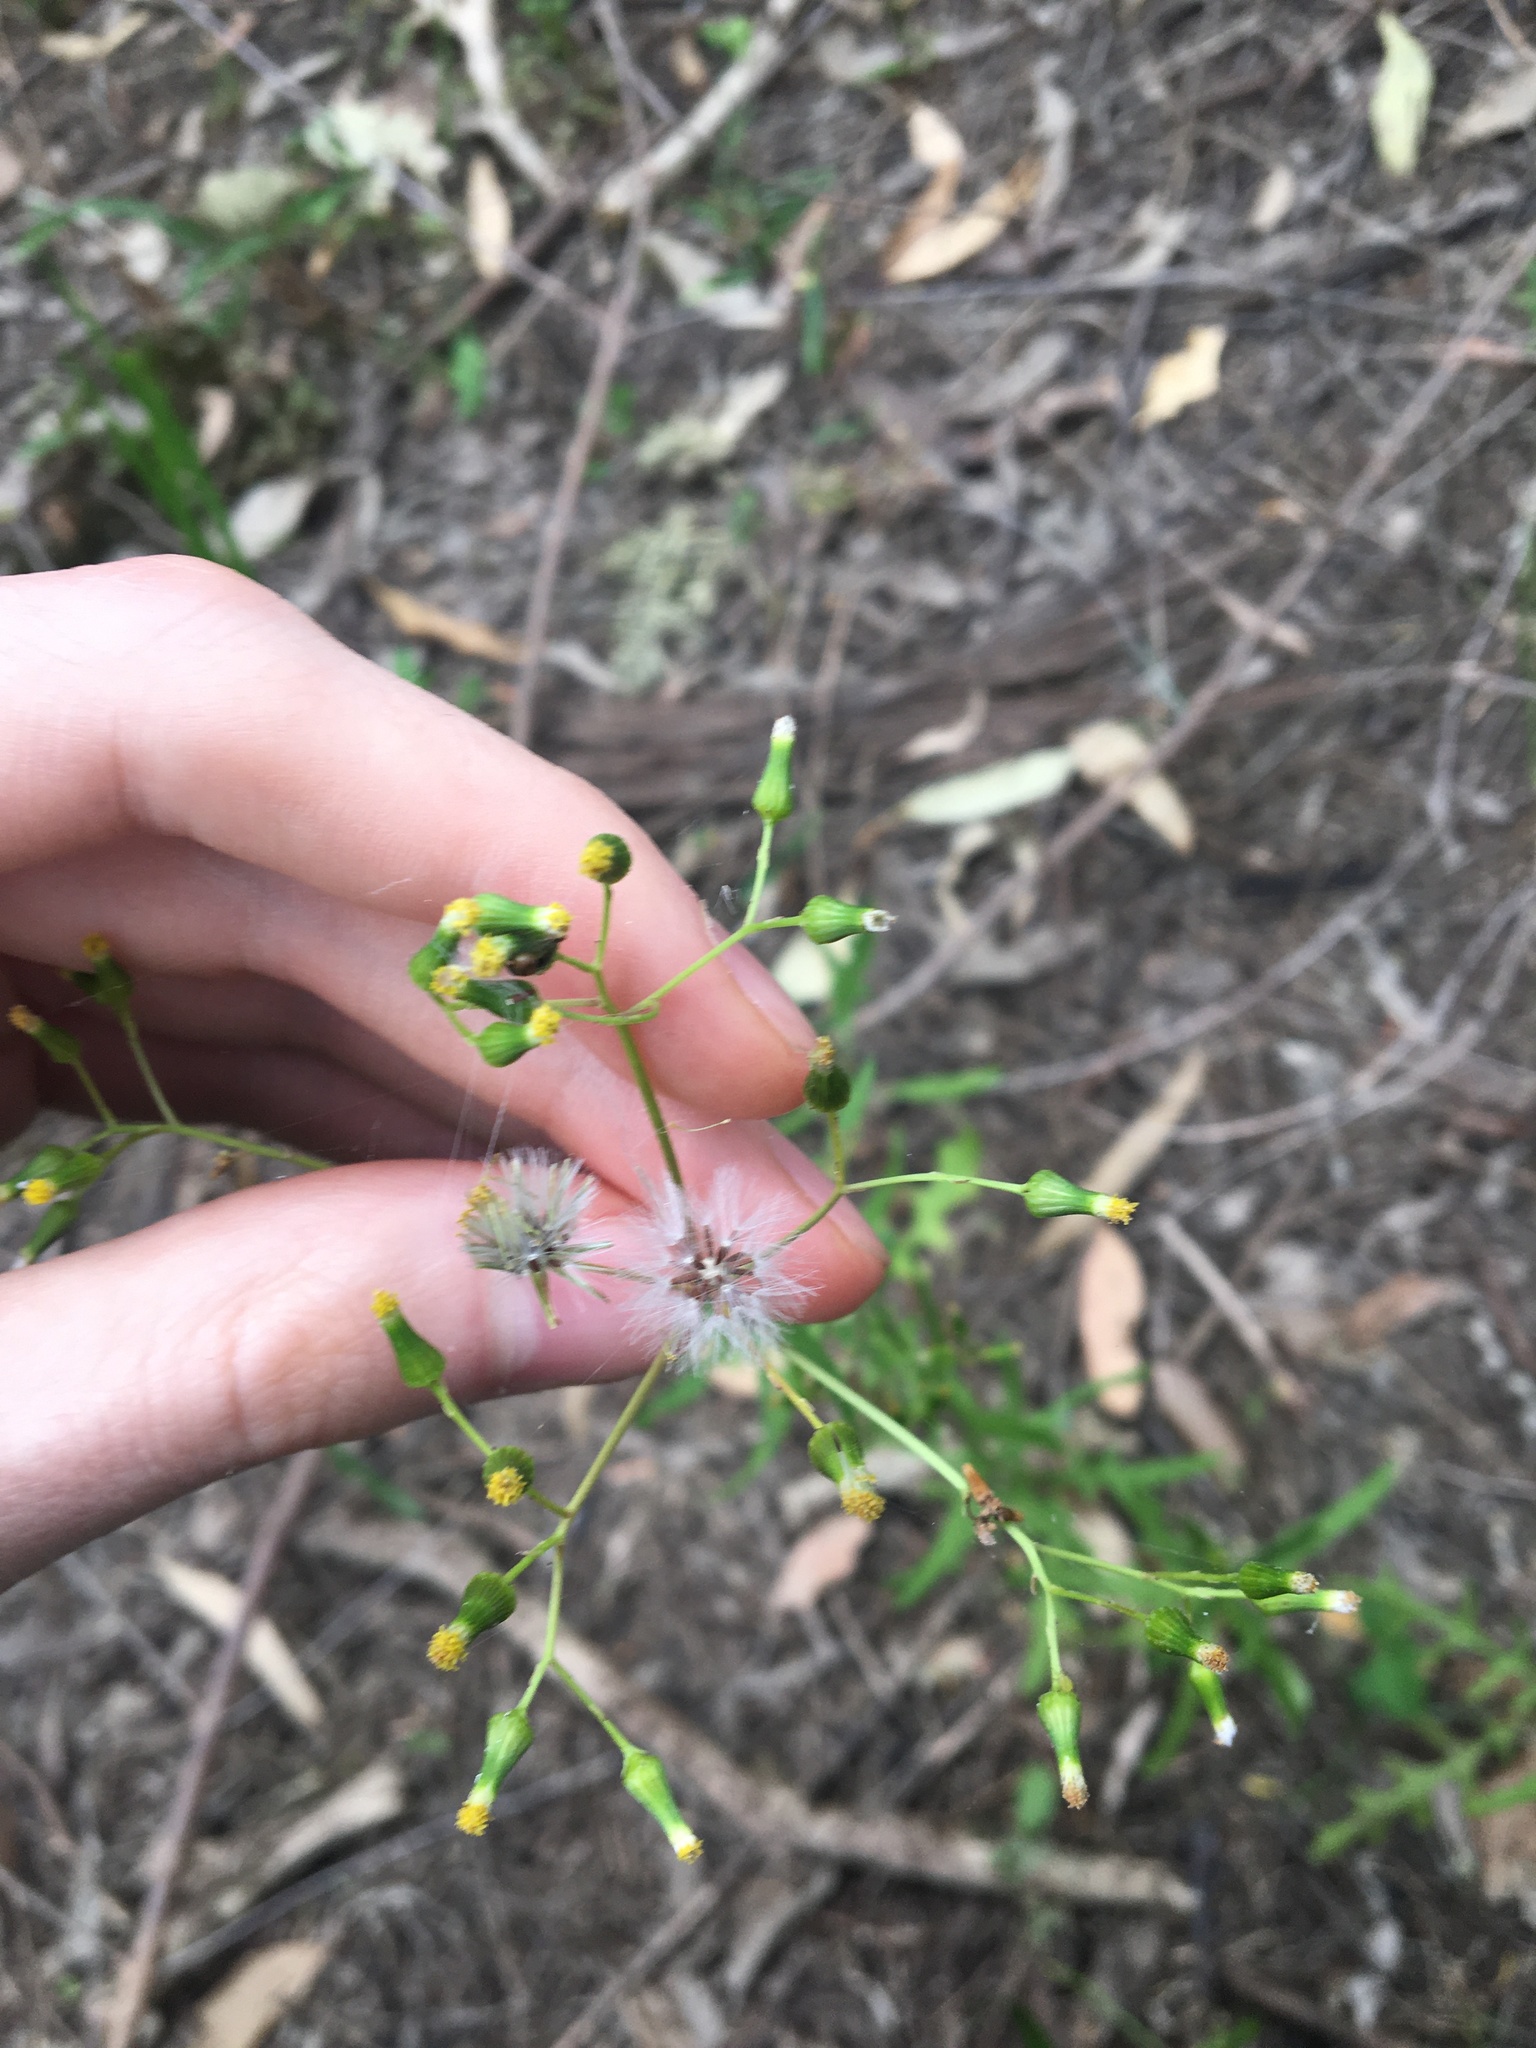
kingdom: Plantae
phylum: Tracheophyta
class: Magnoliopsida
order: Asterales
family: Asteraceae
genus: Senecio
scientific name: Senecio hispidulus
